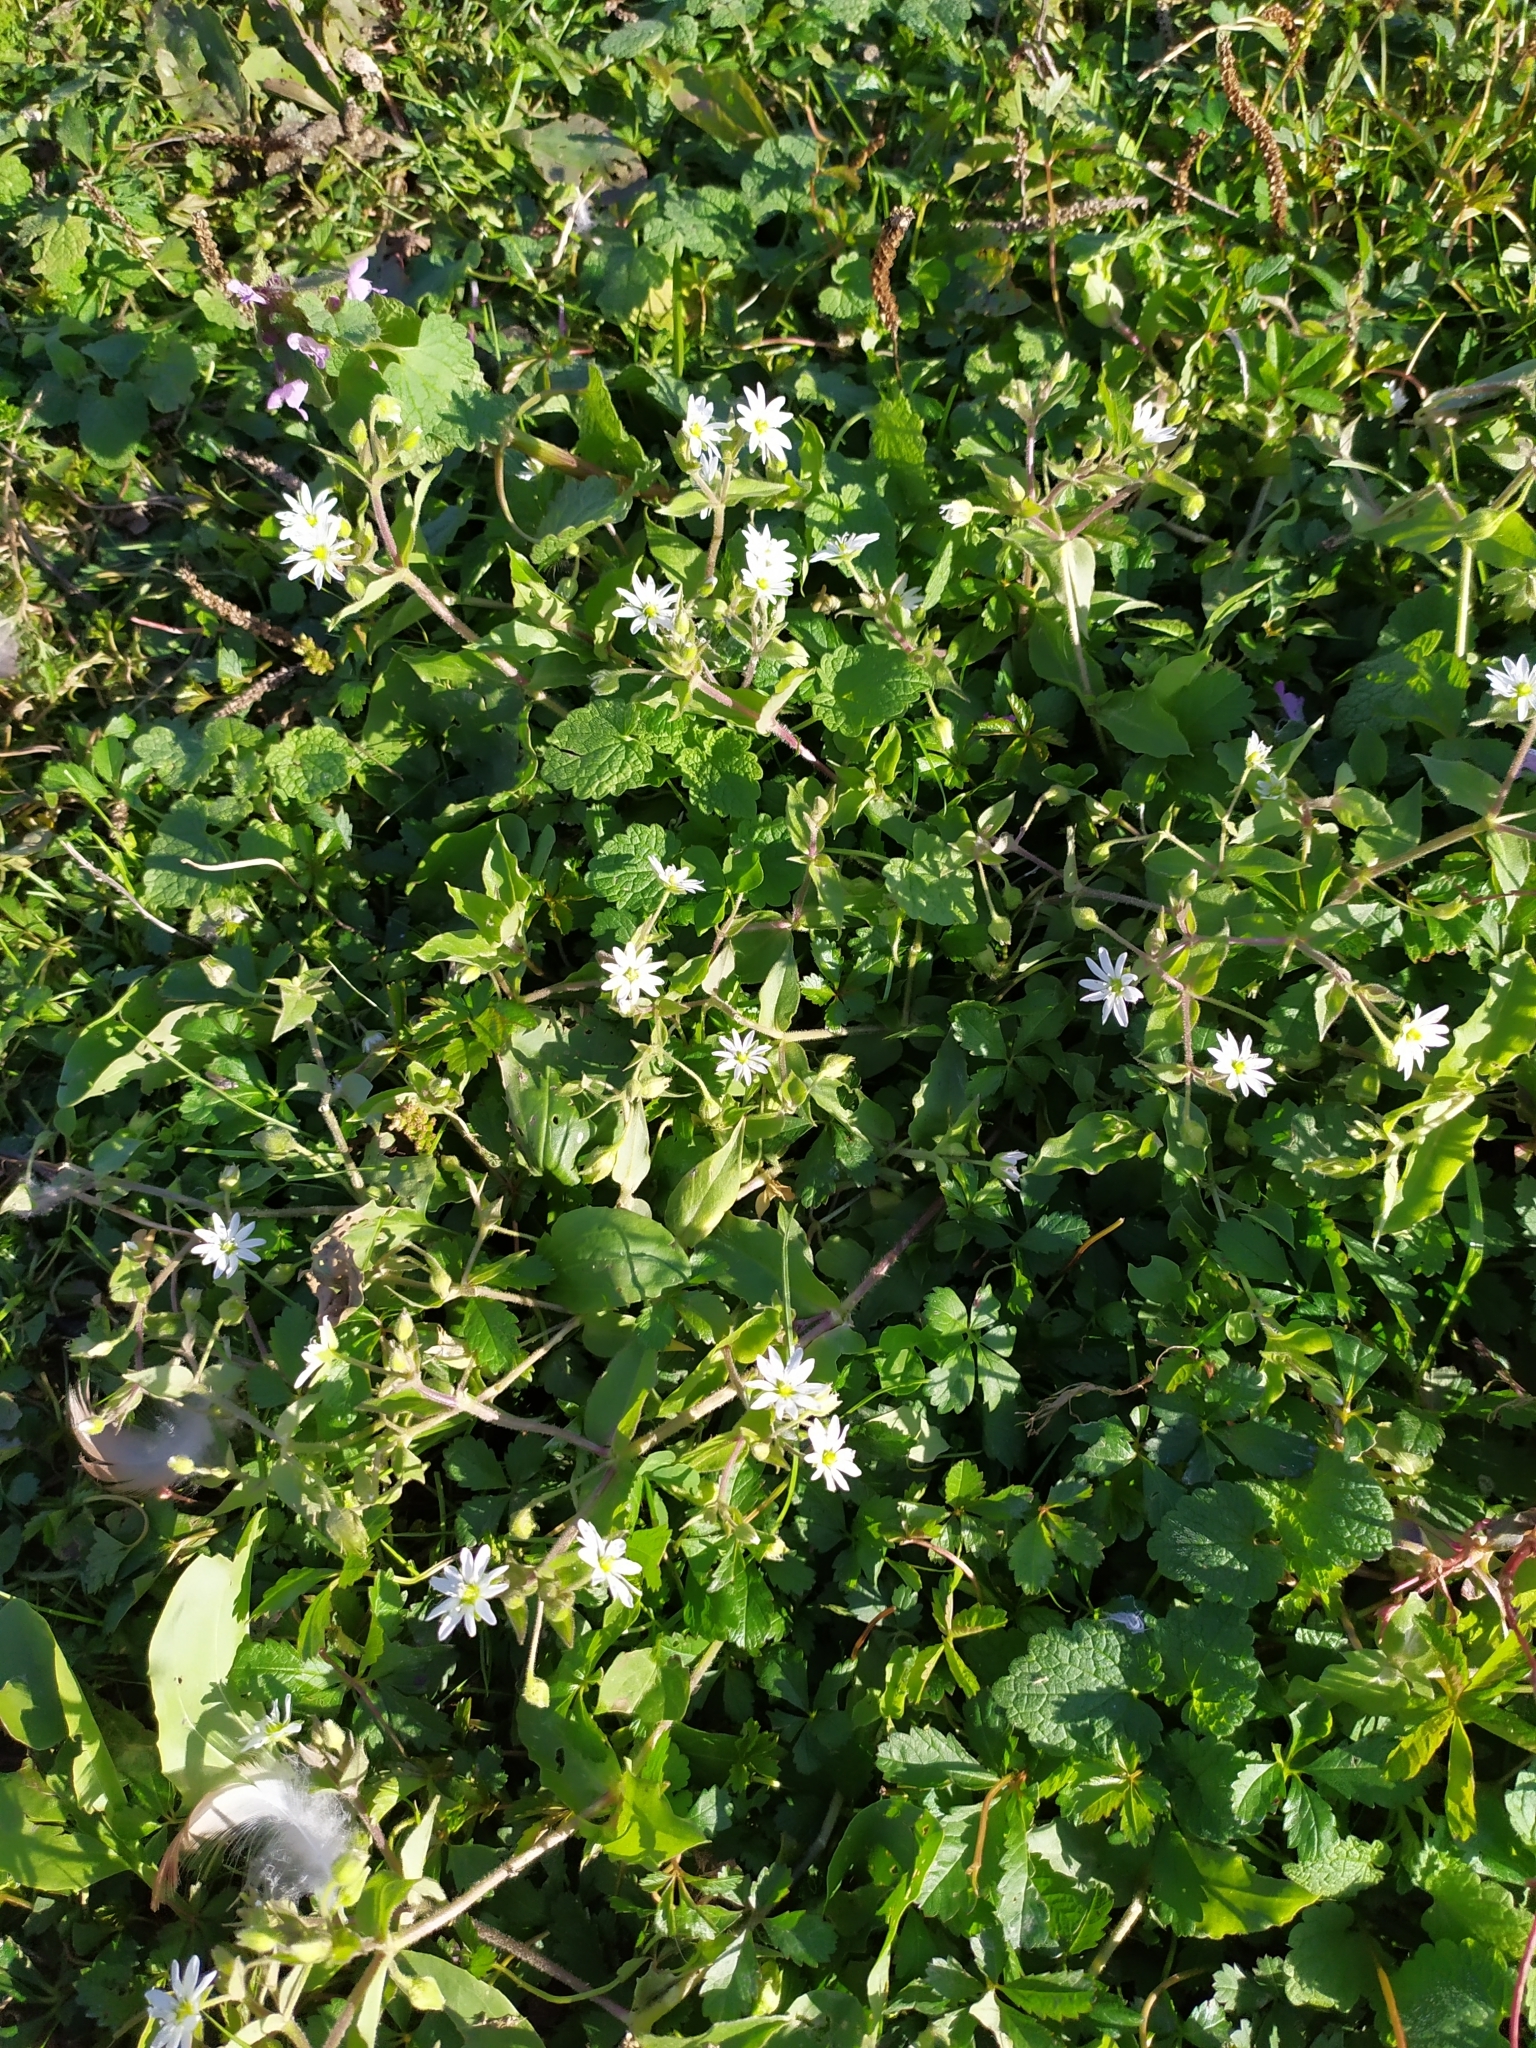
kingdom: Plantae
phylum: Tracheophyta
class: Magnoliopsida
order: Caryophyllales
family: Caryophyllaceae
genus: Stellaria
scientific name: Stellaria aquatica
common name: Water chickweed
